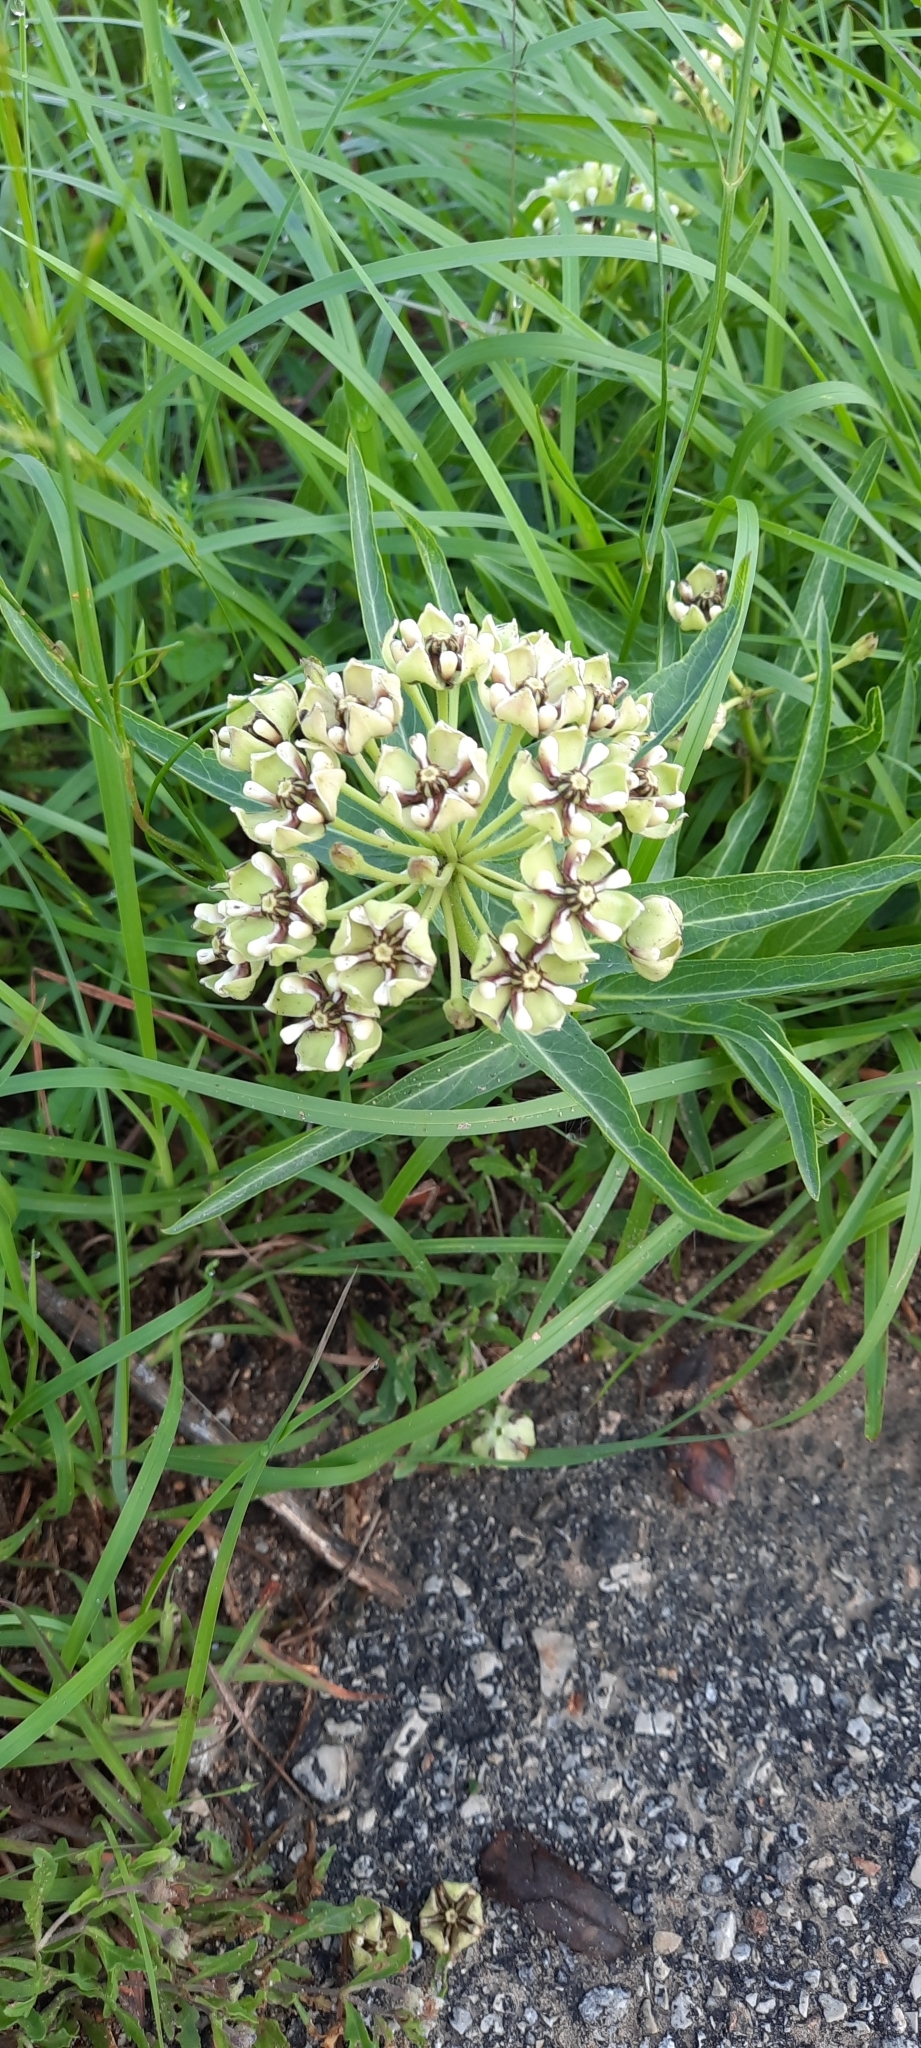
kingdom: Plantae
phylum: Tracheophyta
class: Magnoliopsida
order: Gentianales
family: Apocynaceae
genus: Asclepias
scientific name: Asclepias asperula
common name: Antelope horns
